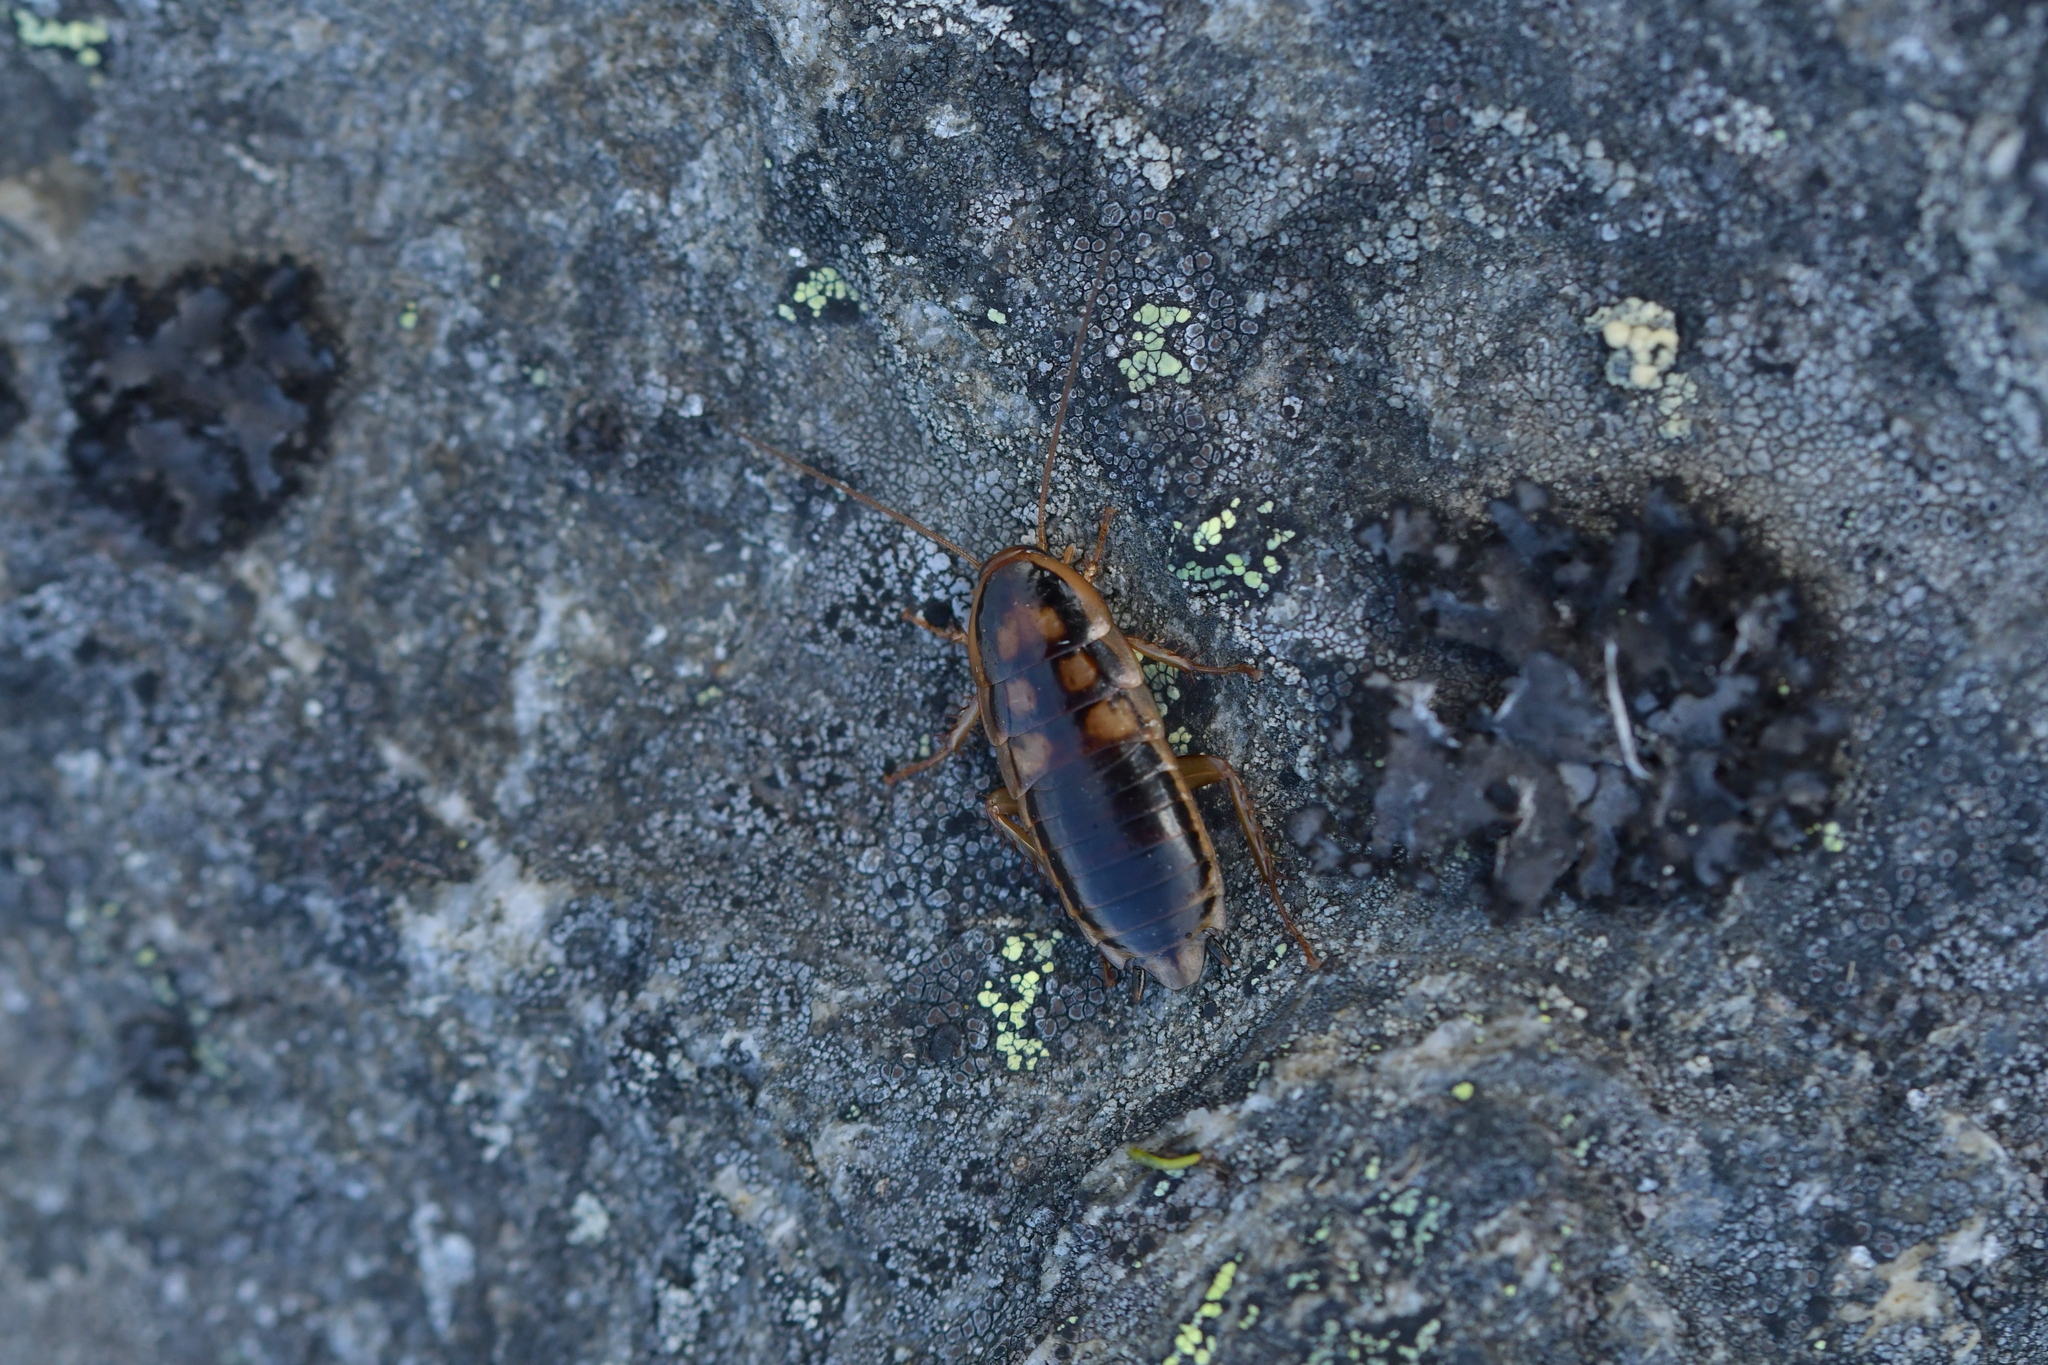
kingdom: Animalia
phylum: Arthropoda
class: Insecta
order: Blattodea
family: Blattidae
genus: Celatoblatta
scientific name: Celatoblatta quinquemaculata
